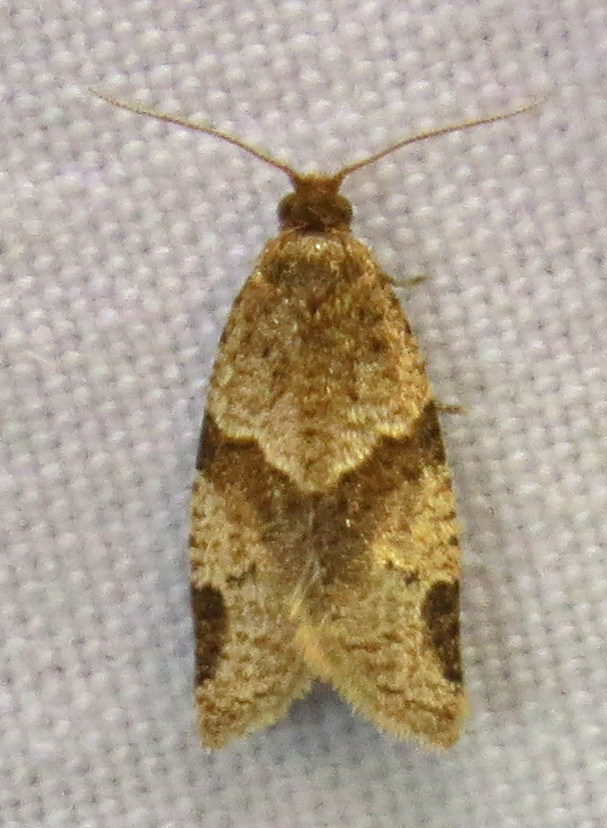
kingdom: Animalia
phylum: Arthropoda
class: Insecta
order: Lepidoptera
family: Tortricidae
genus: Clepsis
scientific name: Clepsis peritana
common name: Garden tortrix
